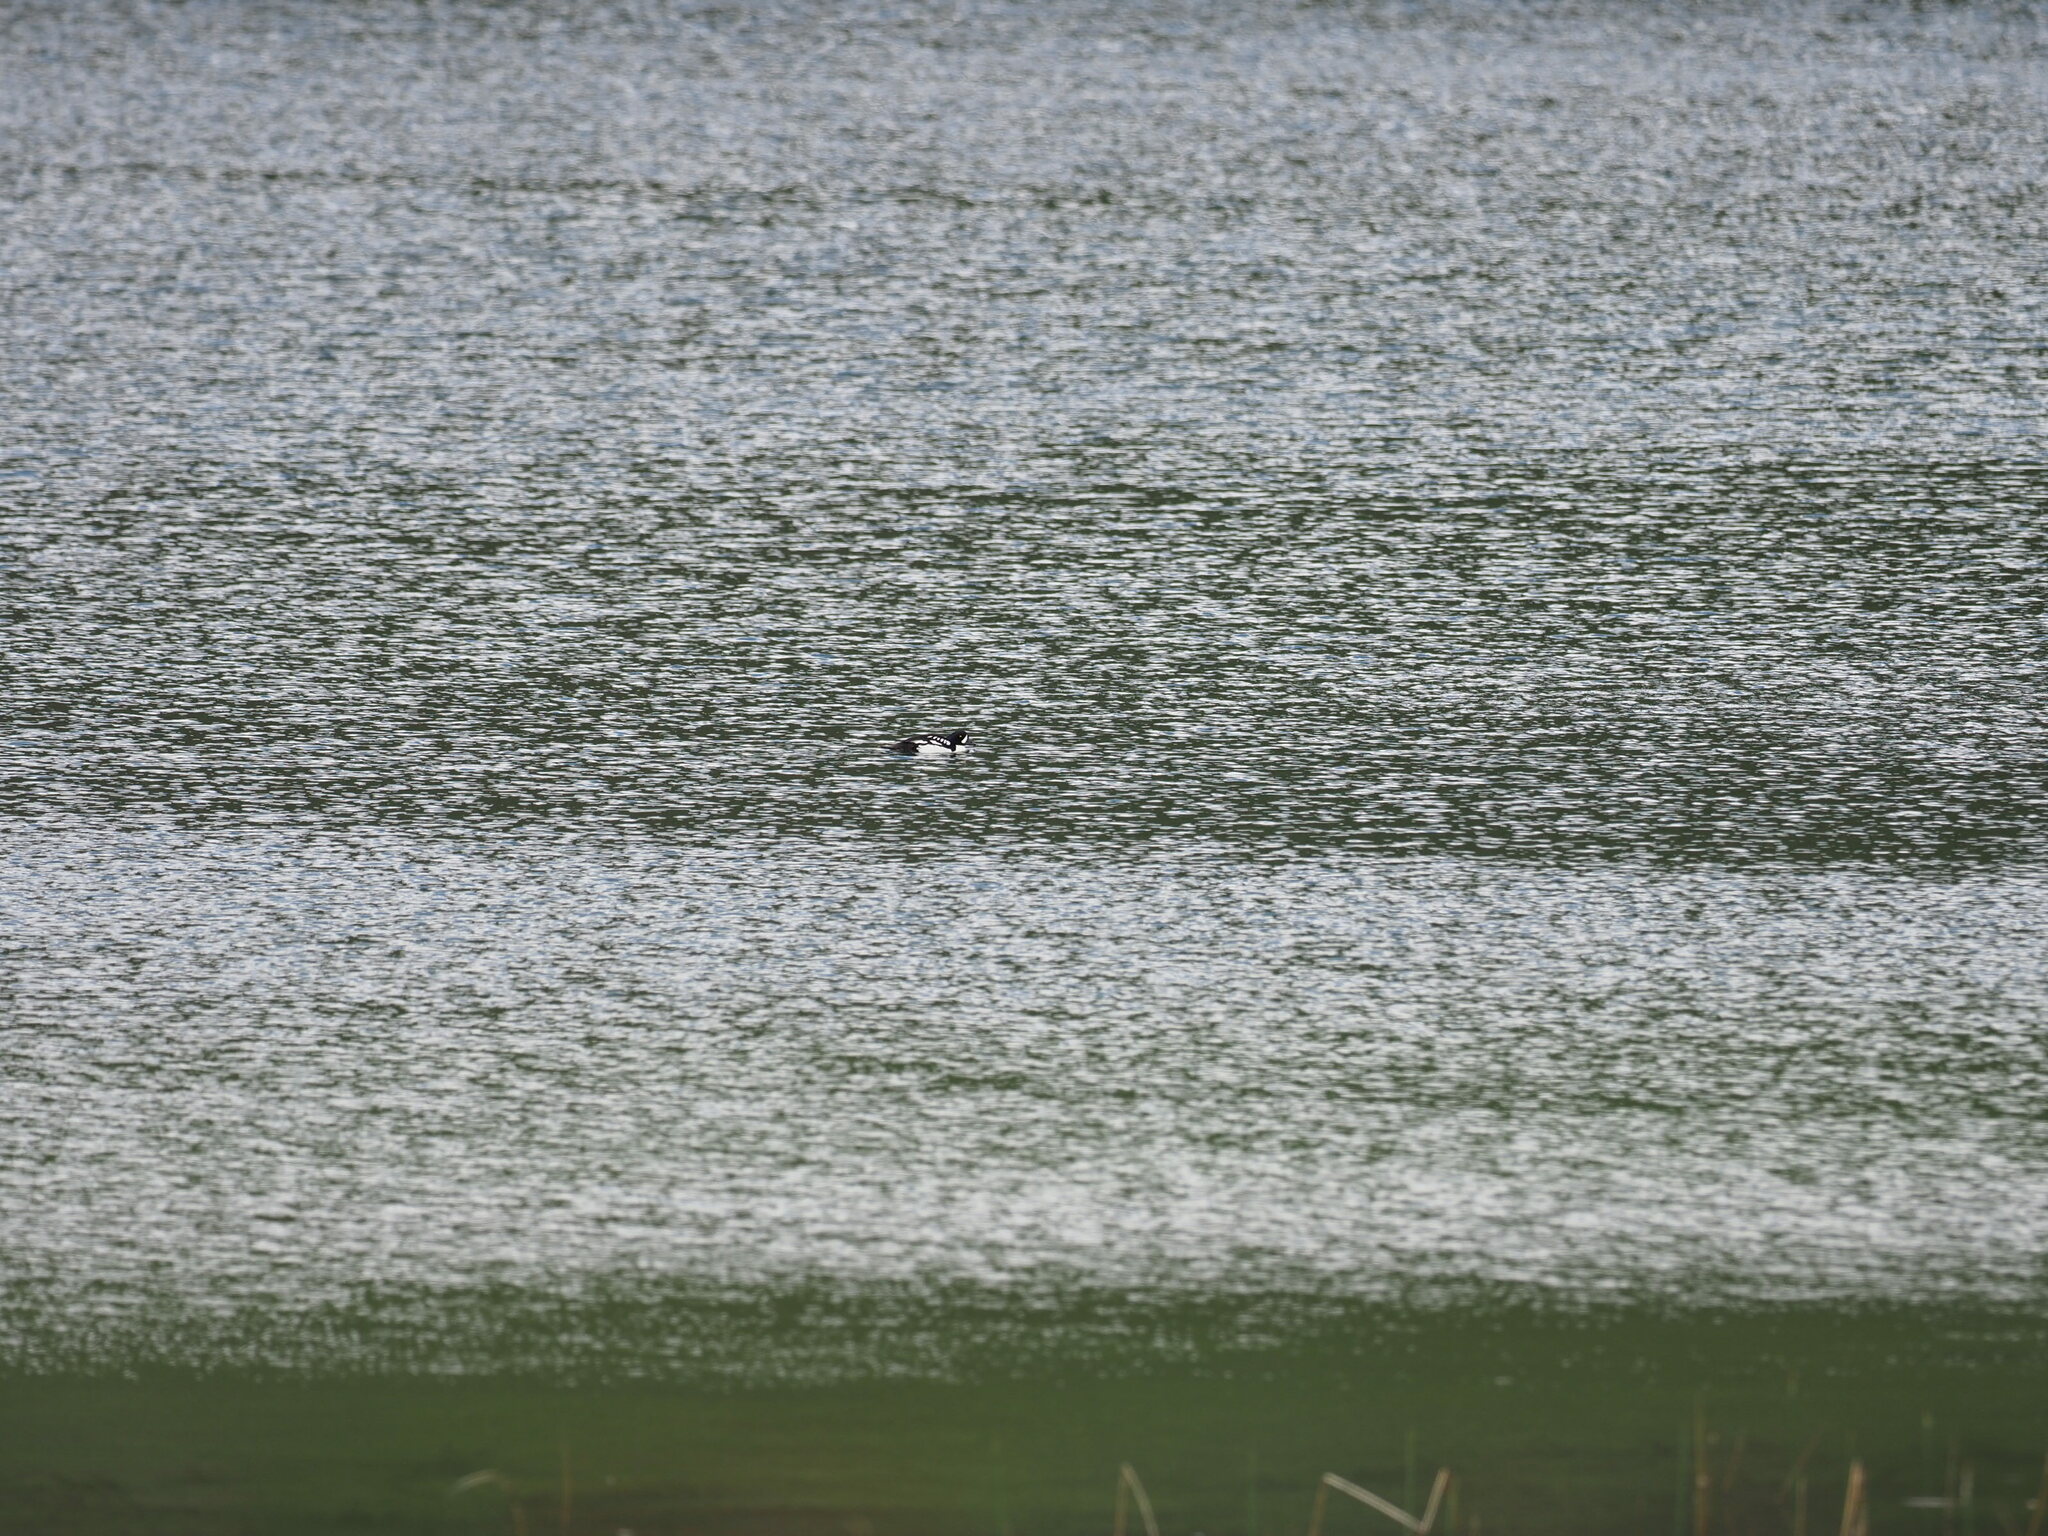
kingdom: Animalia
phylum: Chordata
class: Aves
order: Anseriformes
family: Anatidae
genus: Bucephala
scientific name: Bucephala islandica
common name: Barrow's goldeneye
